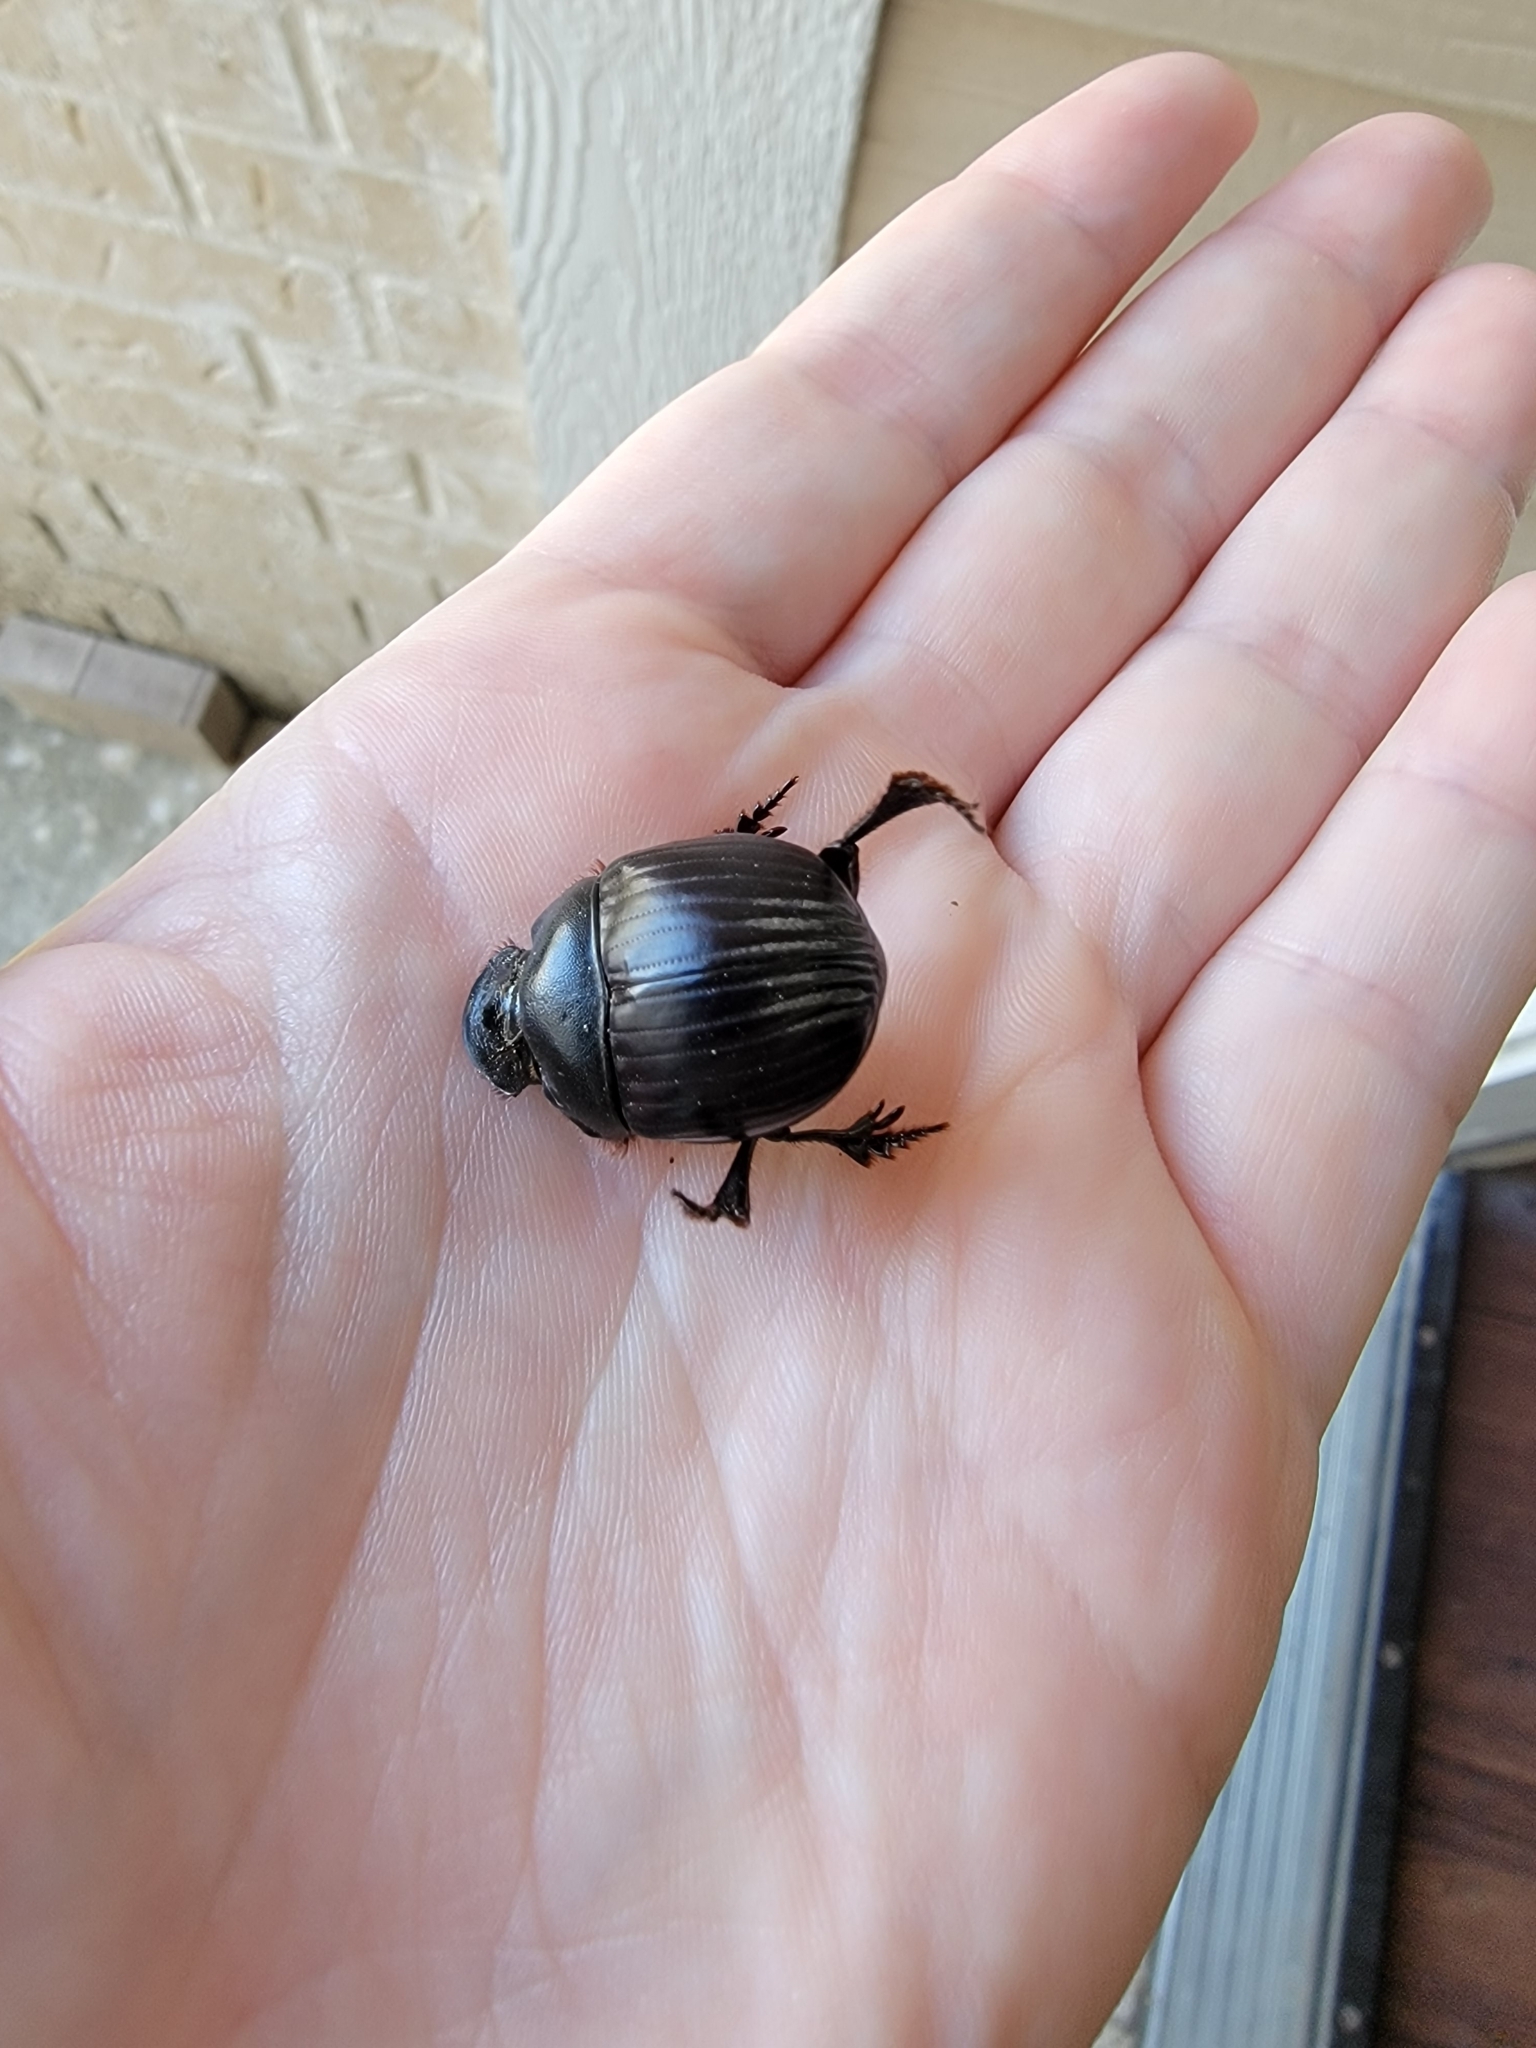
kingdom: Animalia
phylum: Arthropoda
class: Insecta
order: Coleoptera
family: Scarabaeidae
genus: Dichotomius
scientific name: Dichotomius carolinus
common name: Carolina copris
